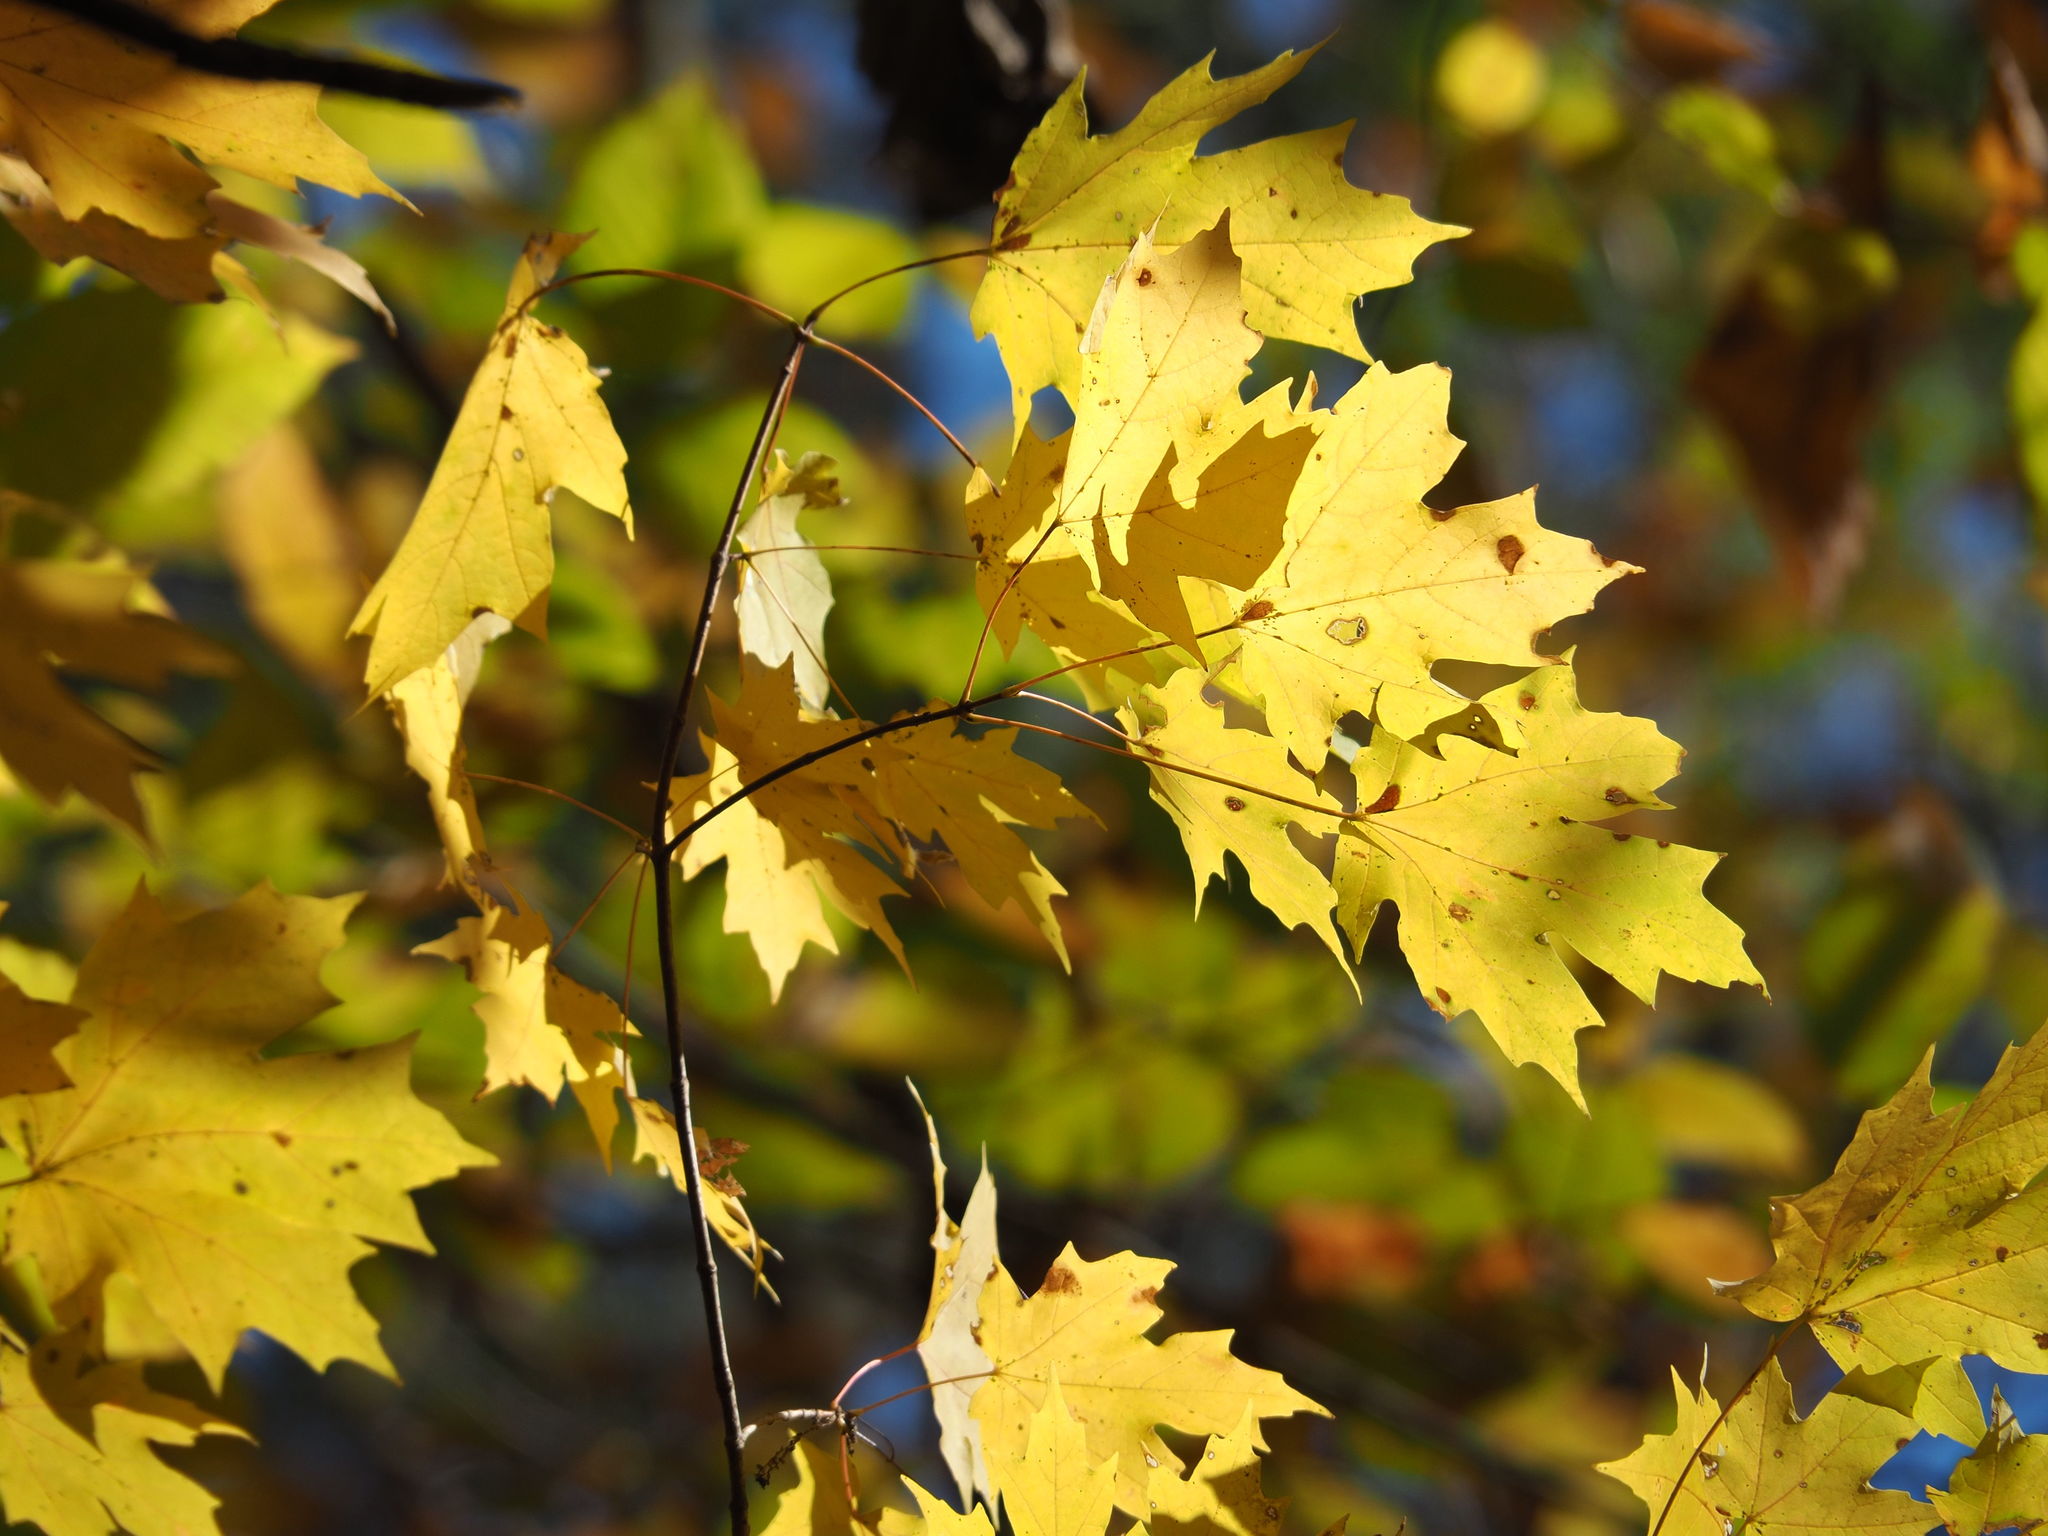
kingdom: Plantae
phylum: Tracheophyta
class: Magnoliopsida
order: Sapindales
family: Sapindaceae
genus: Acer
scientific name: Acer saccharum
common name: Sugar maple
